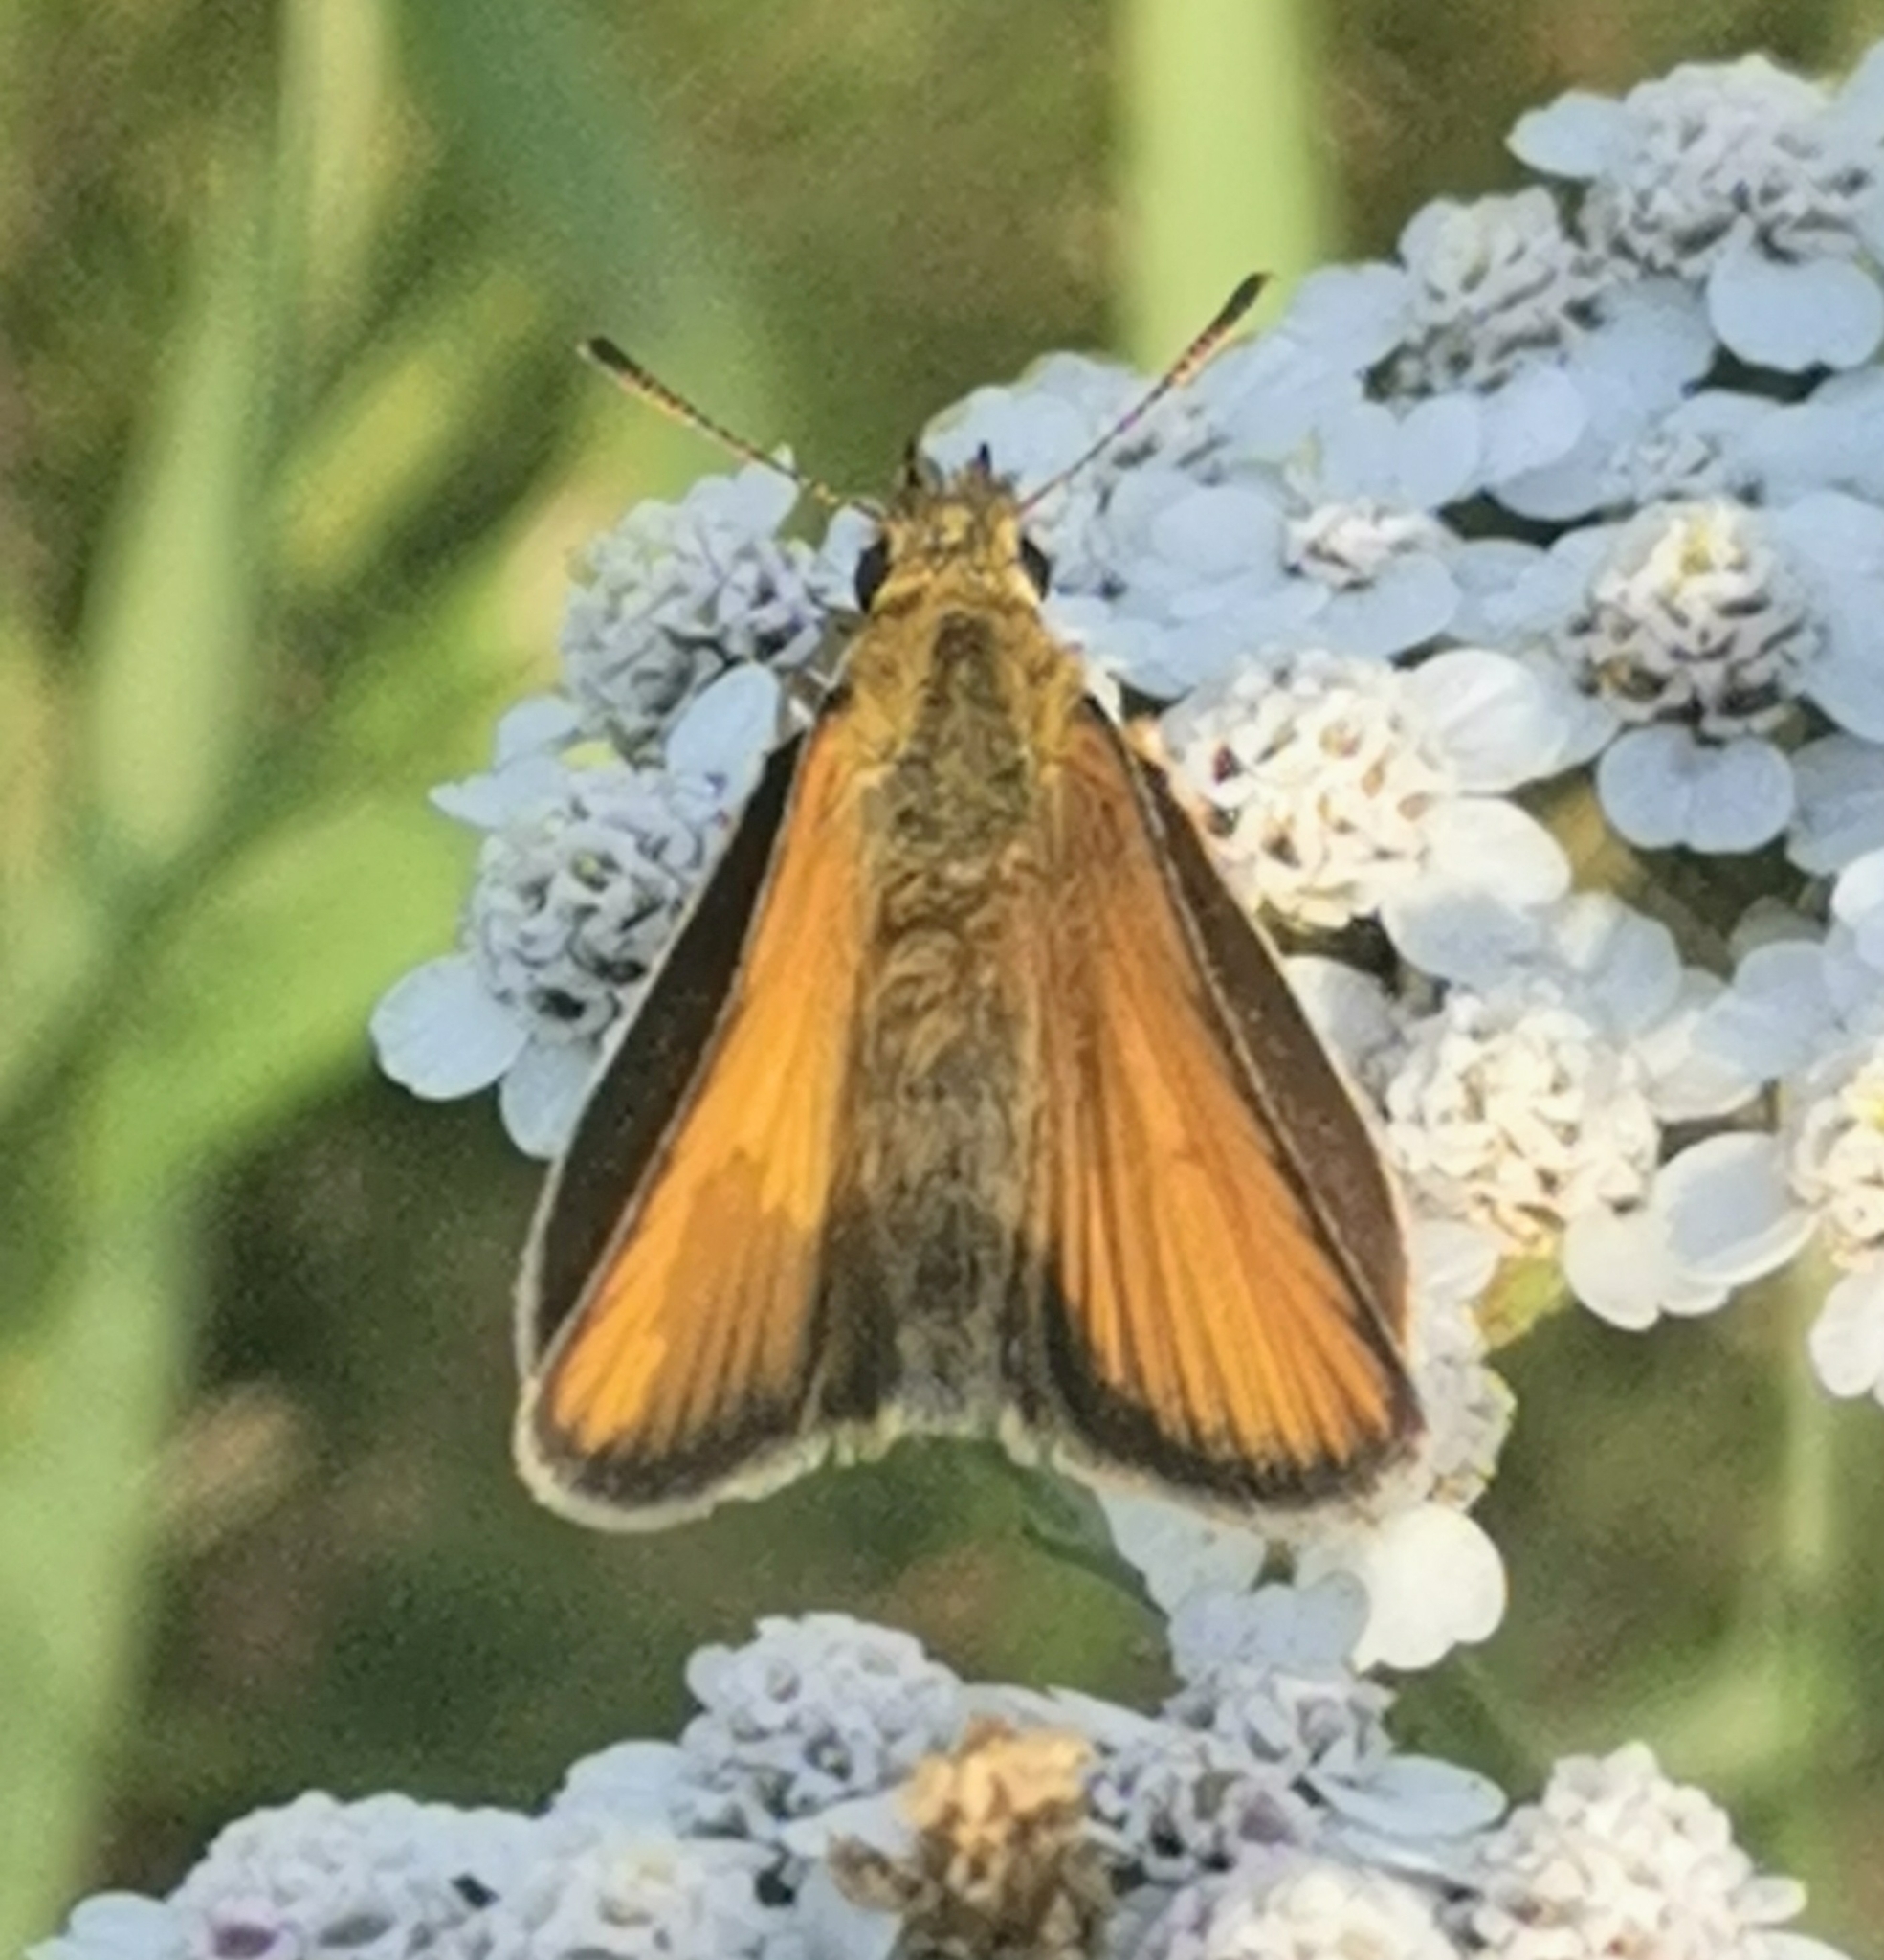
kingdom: Animalia
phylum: Arthropoda
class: Insecta
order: Lepidoptera
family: Hesperiidae
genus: Thymelicus
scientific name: Thymelicus lineola
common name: Essex skipper
